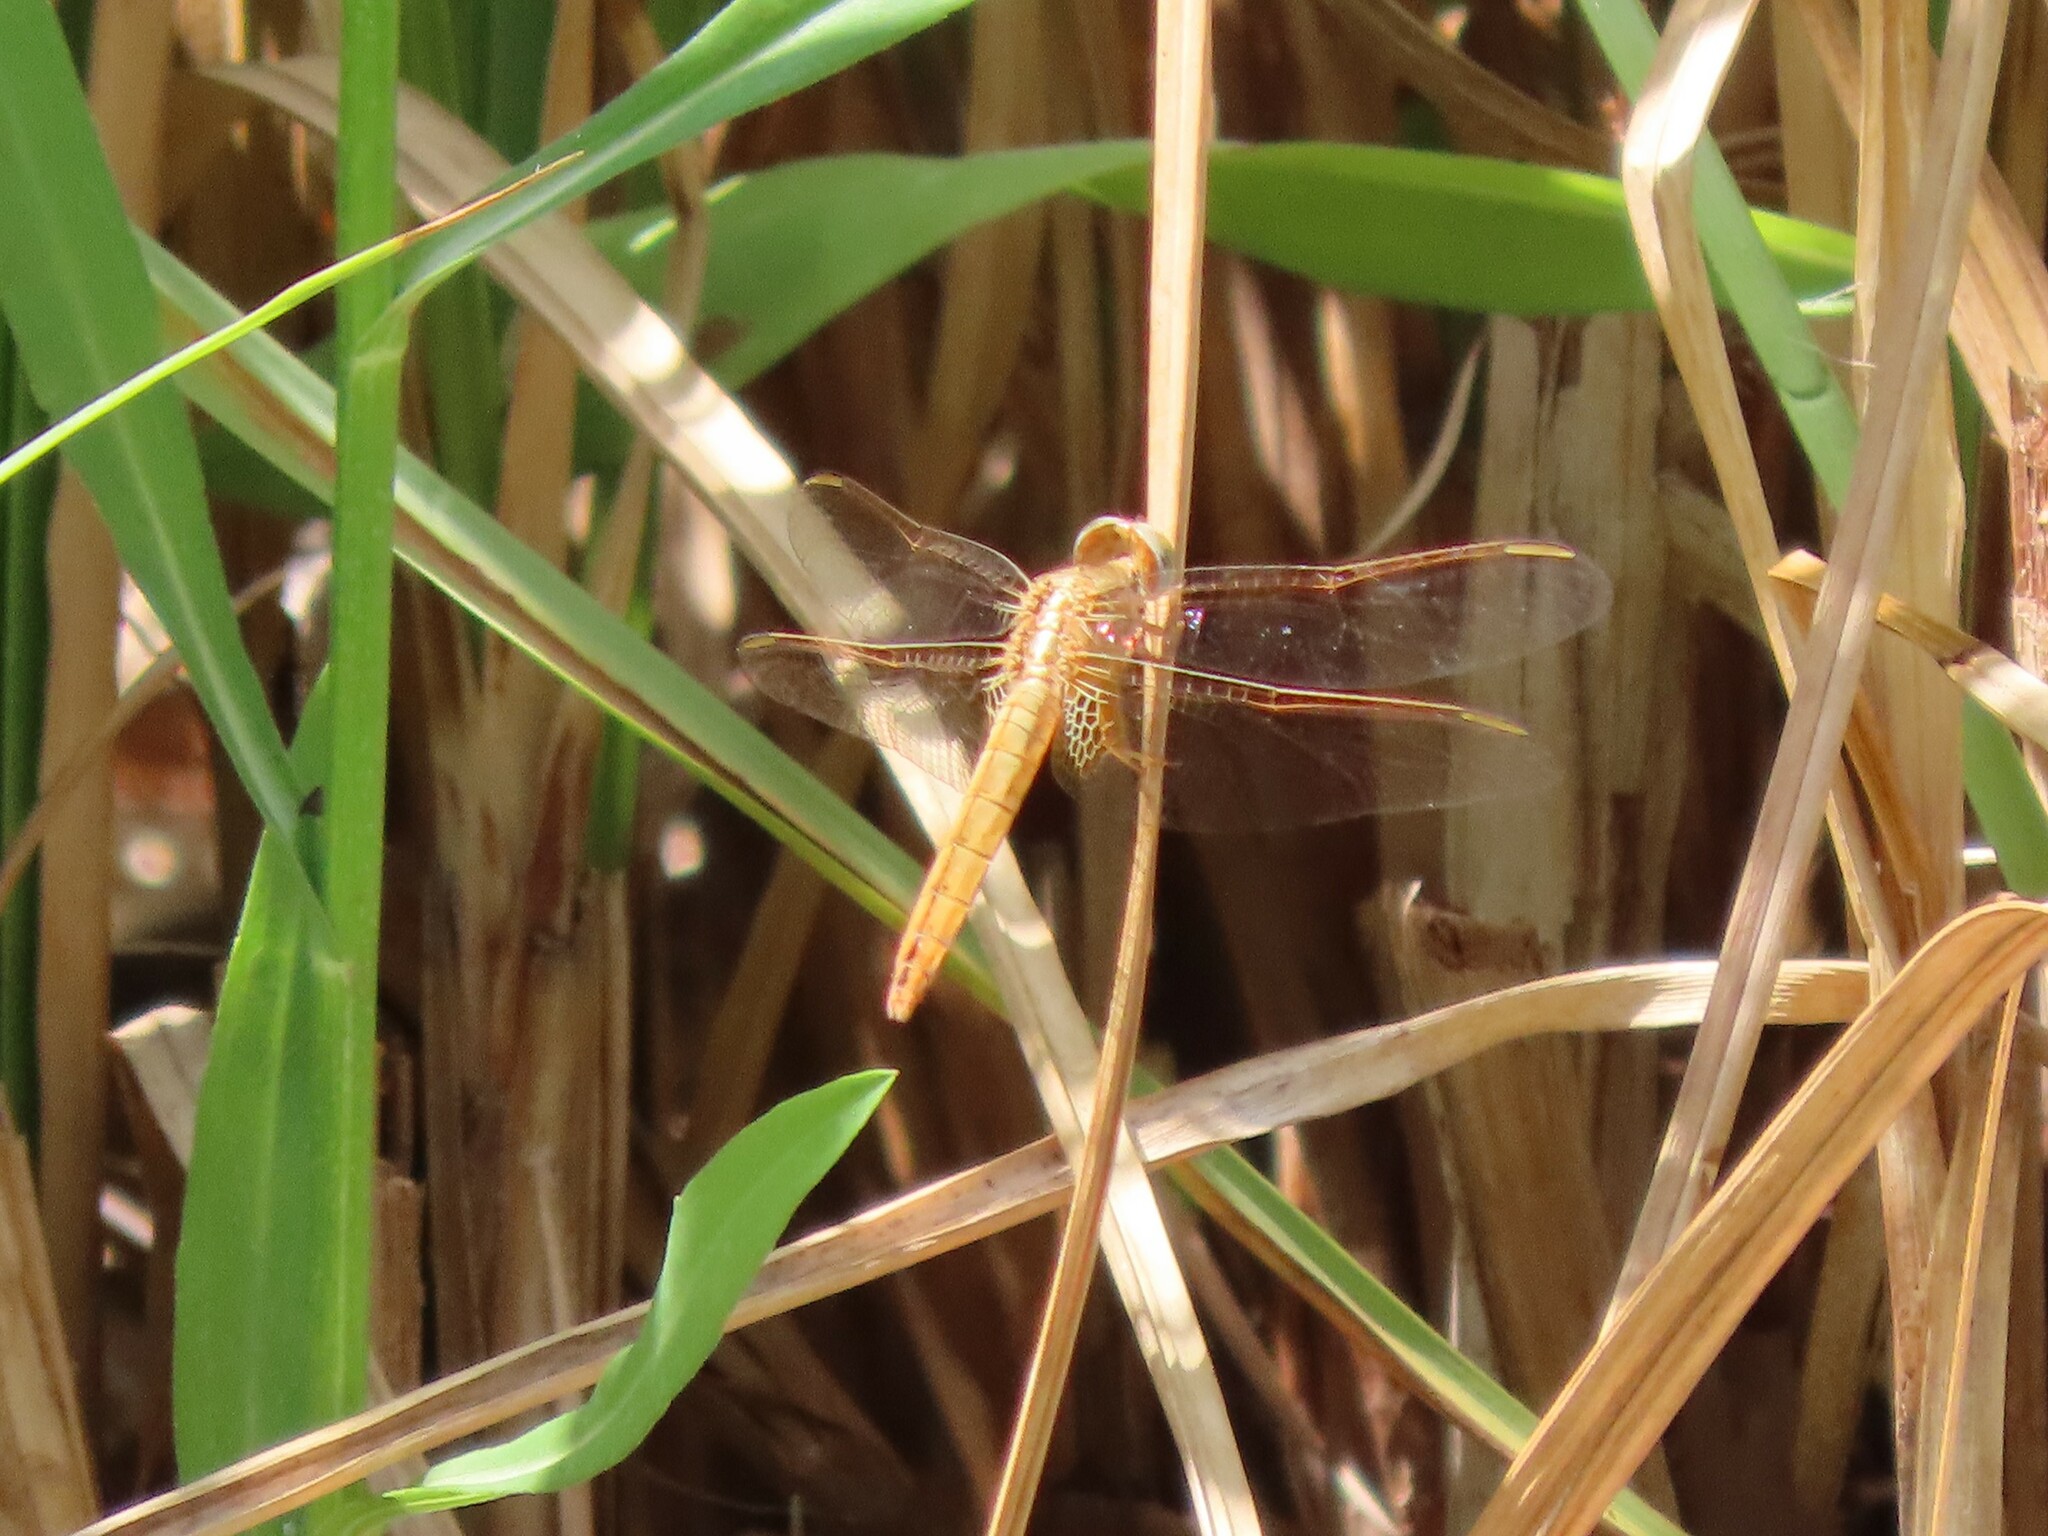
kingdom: Animalia
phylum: Arthropoda
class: Insecta
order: Odonata
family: Libellulidae
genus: Crocothemis
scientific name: Crocothemis erythraea
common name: Scarlet dragonfly
